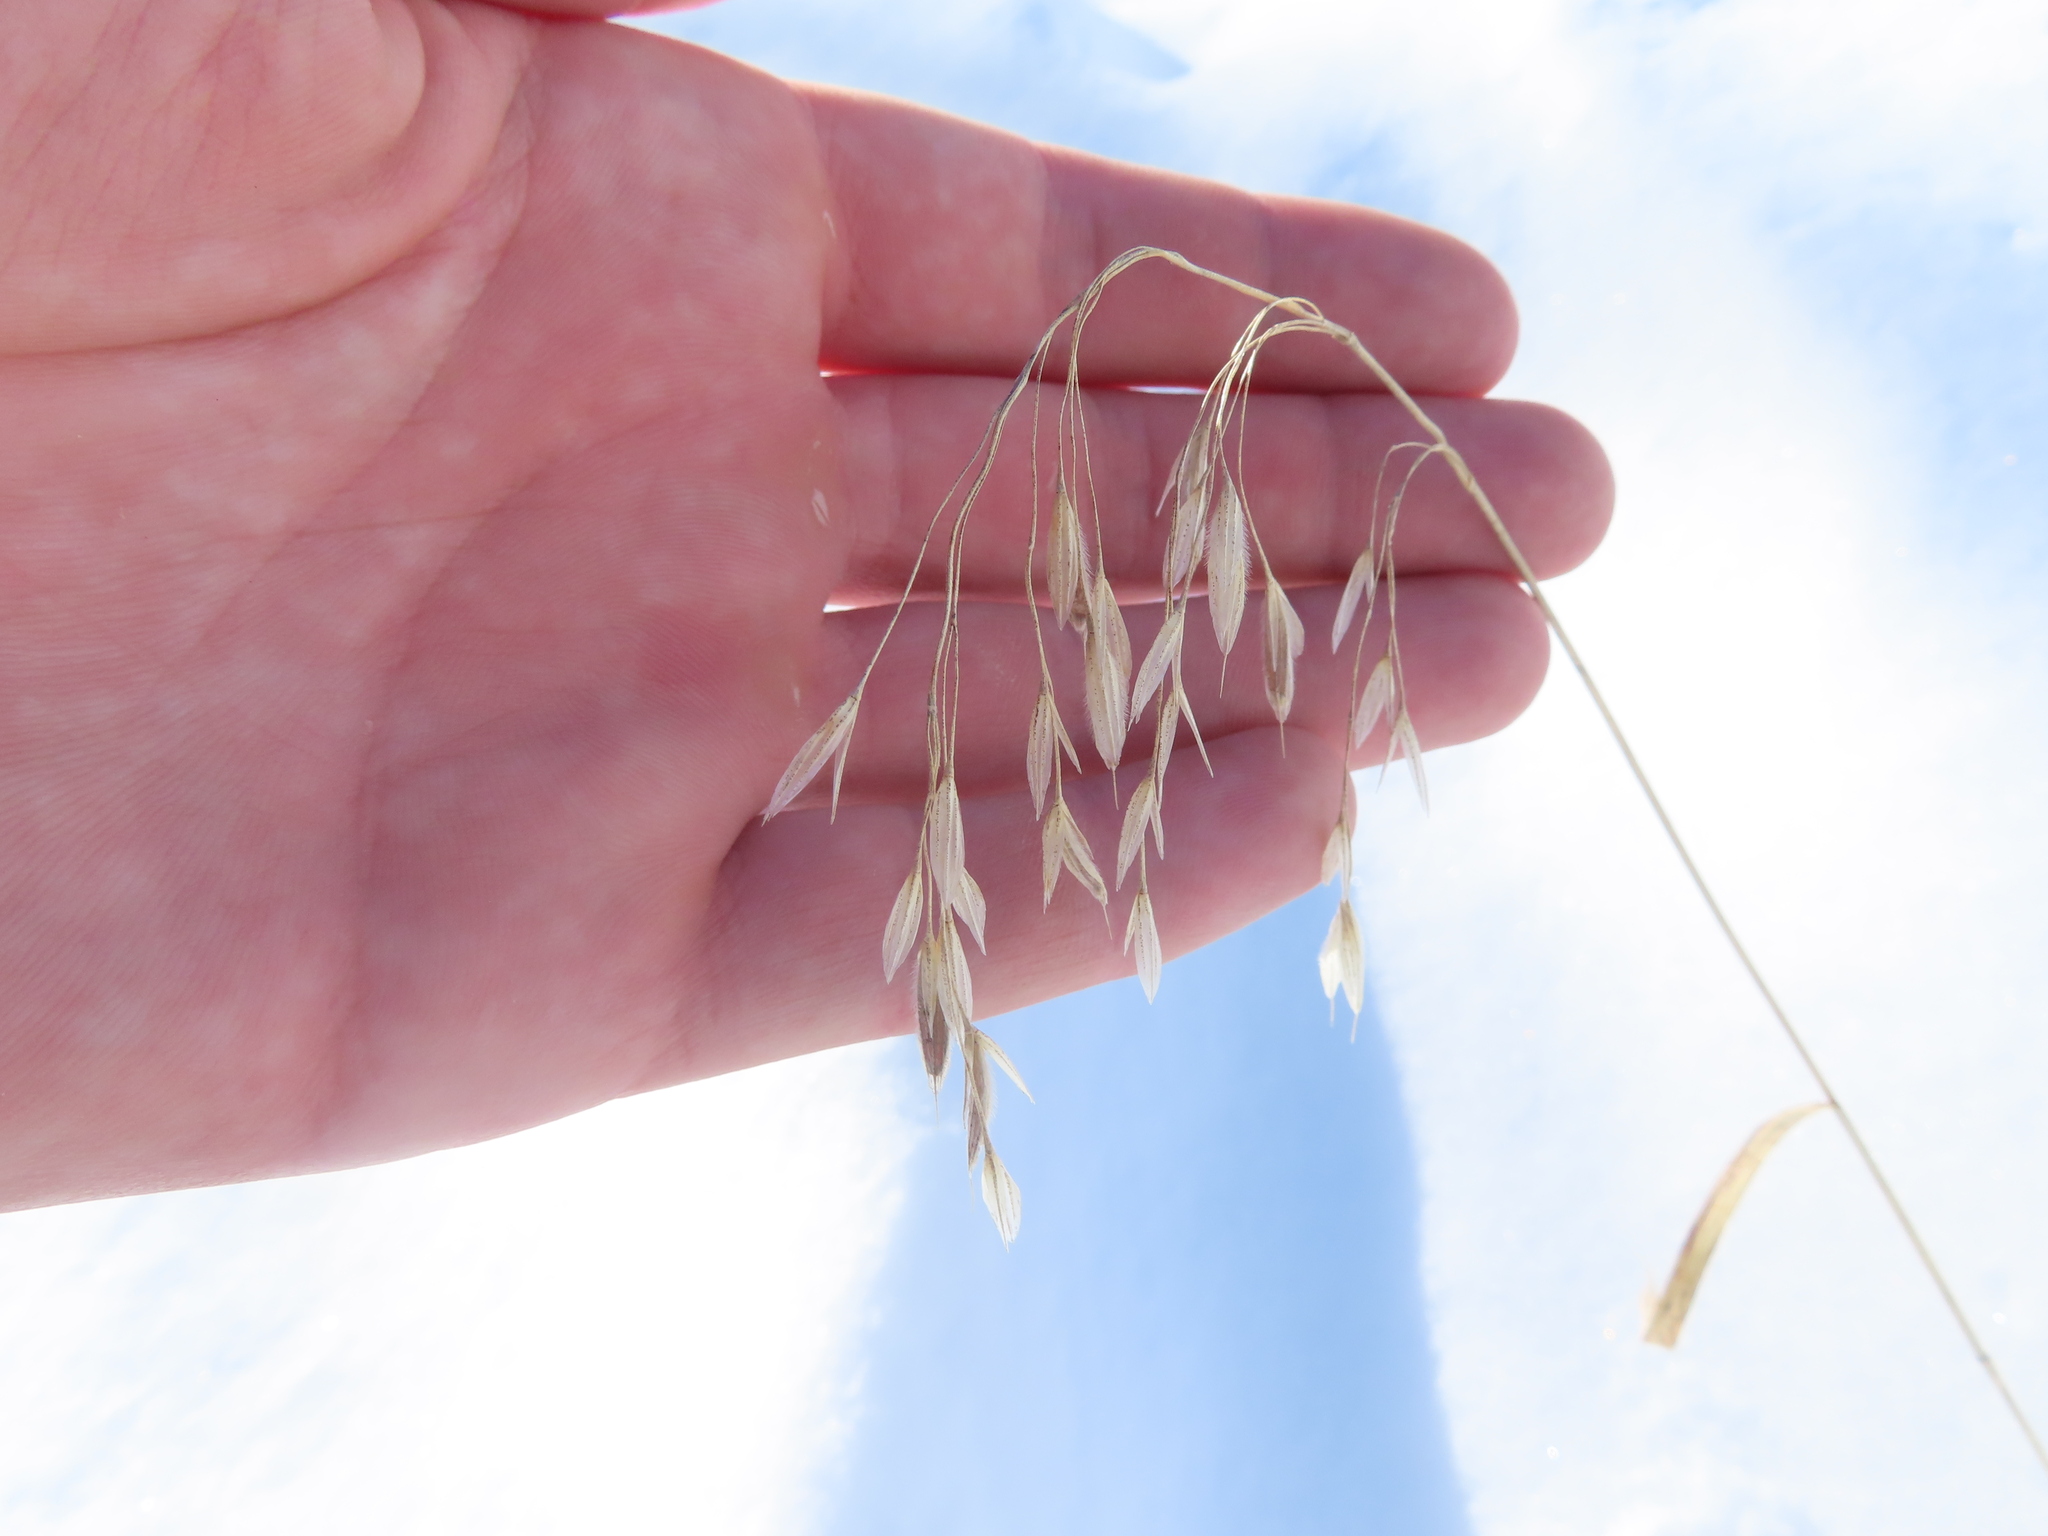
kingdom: Plantae
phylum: Tracheophyta
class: Liliopsida
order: Poales
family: Poaceae
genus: Bromus
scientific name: Bromus ciliatus
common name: Fringe brome
